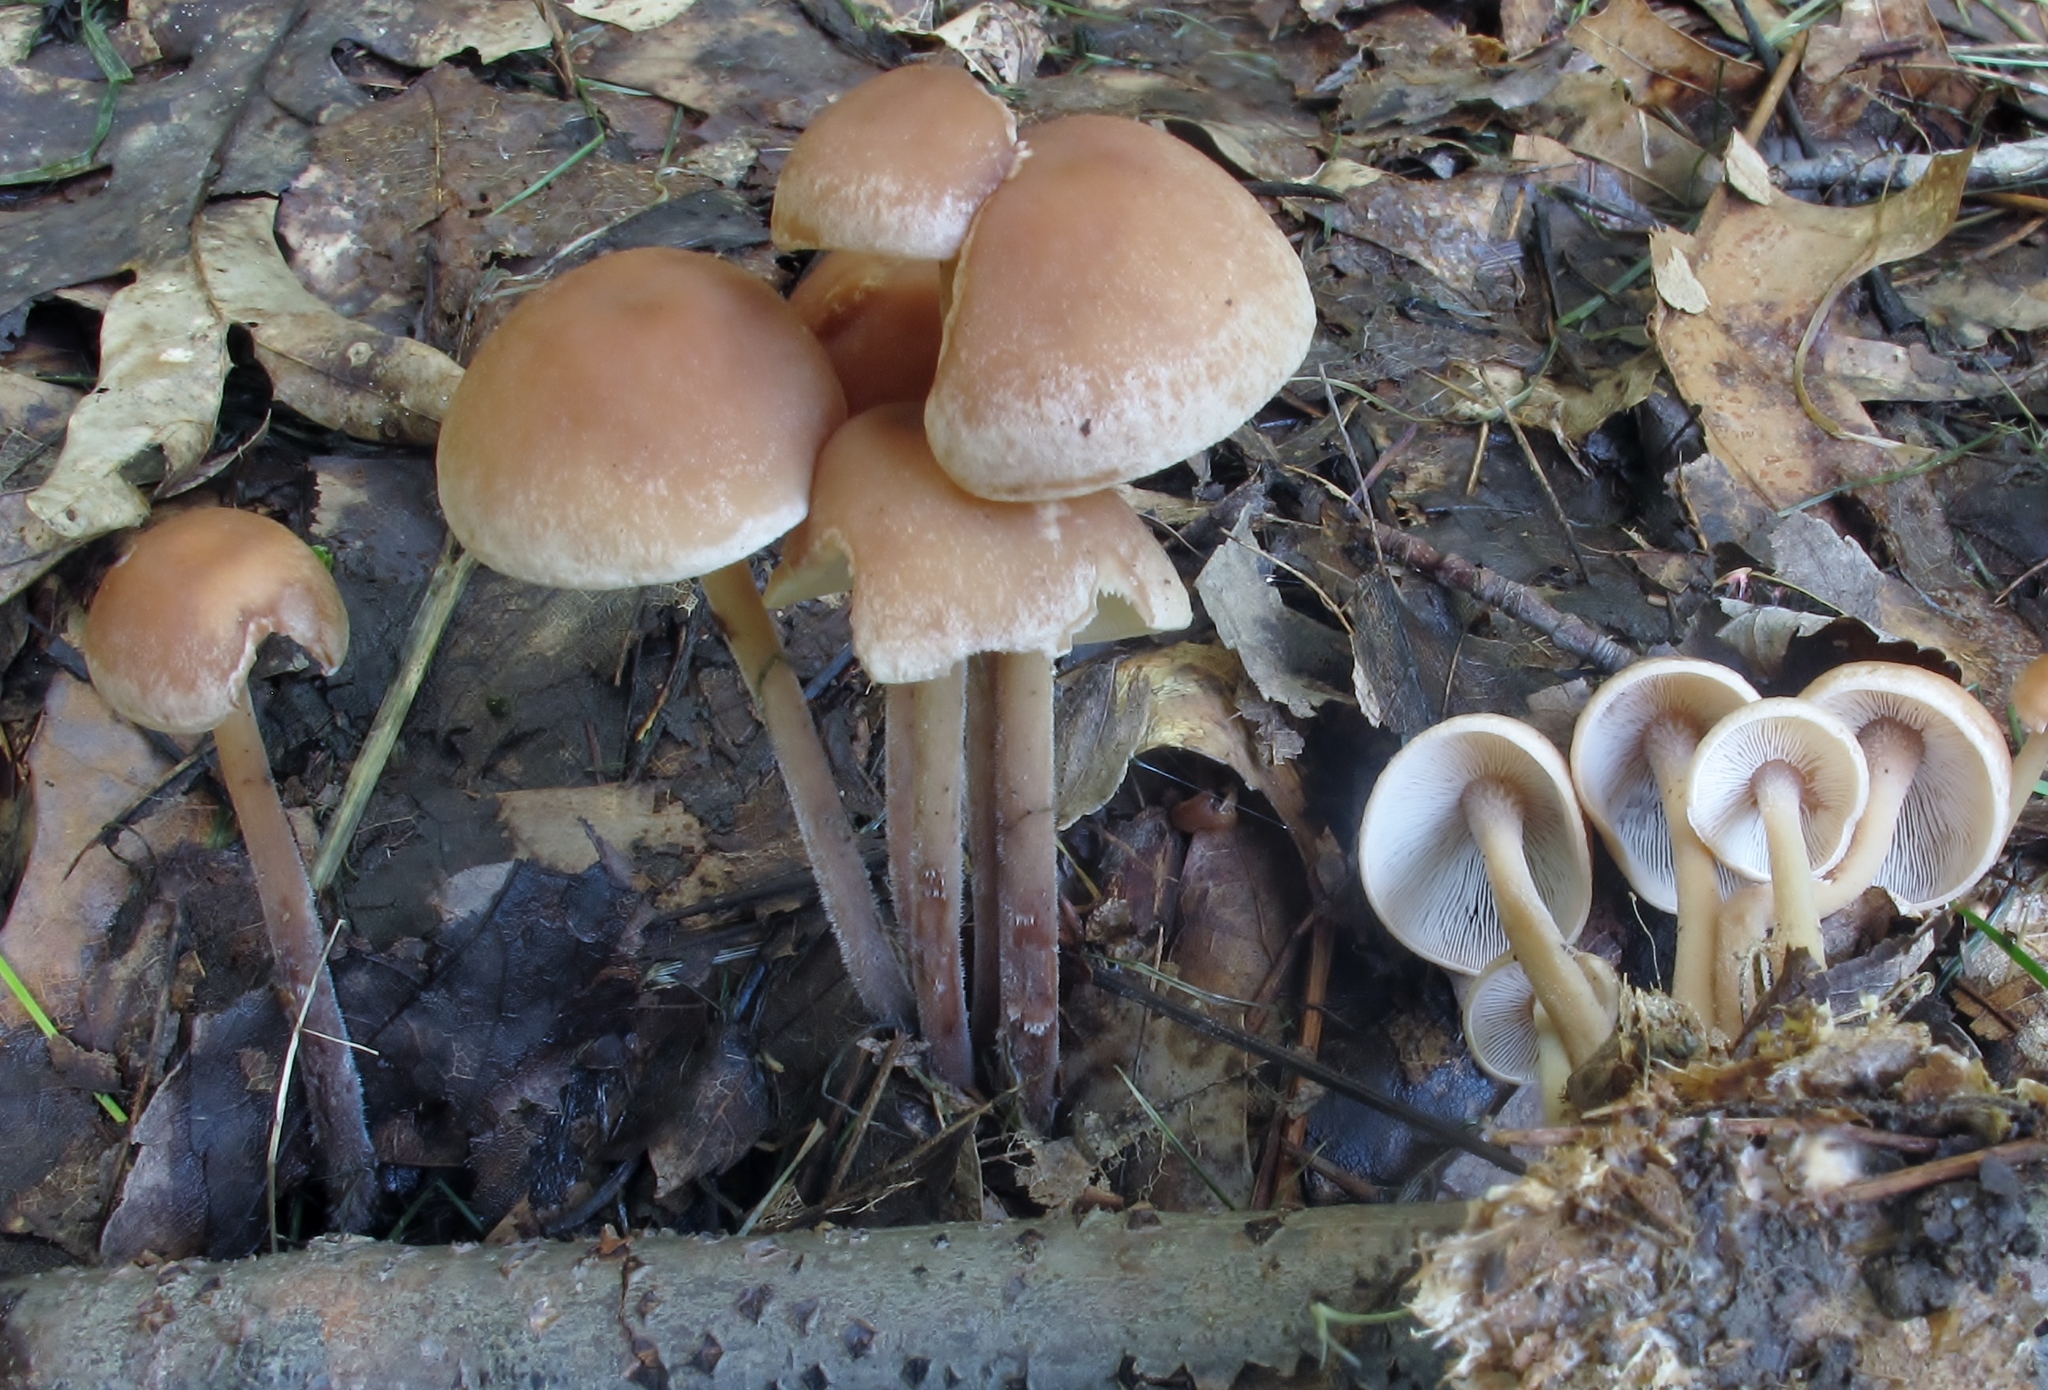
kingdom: Fungi
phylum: Basidiomycota
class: Agaricomycetes
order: Agaricales
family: Omphalotaceae
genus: Collybiopsis
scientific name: Collybiopsis confluens
